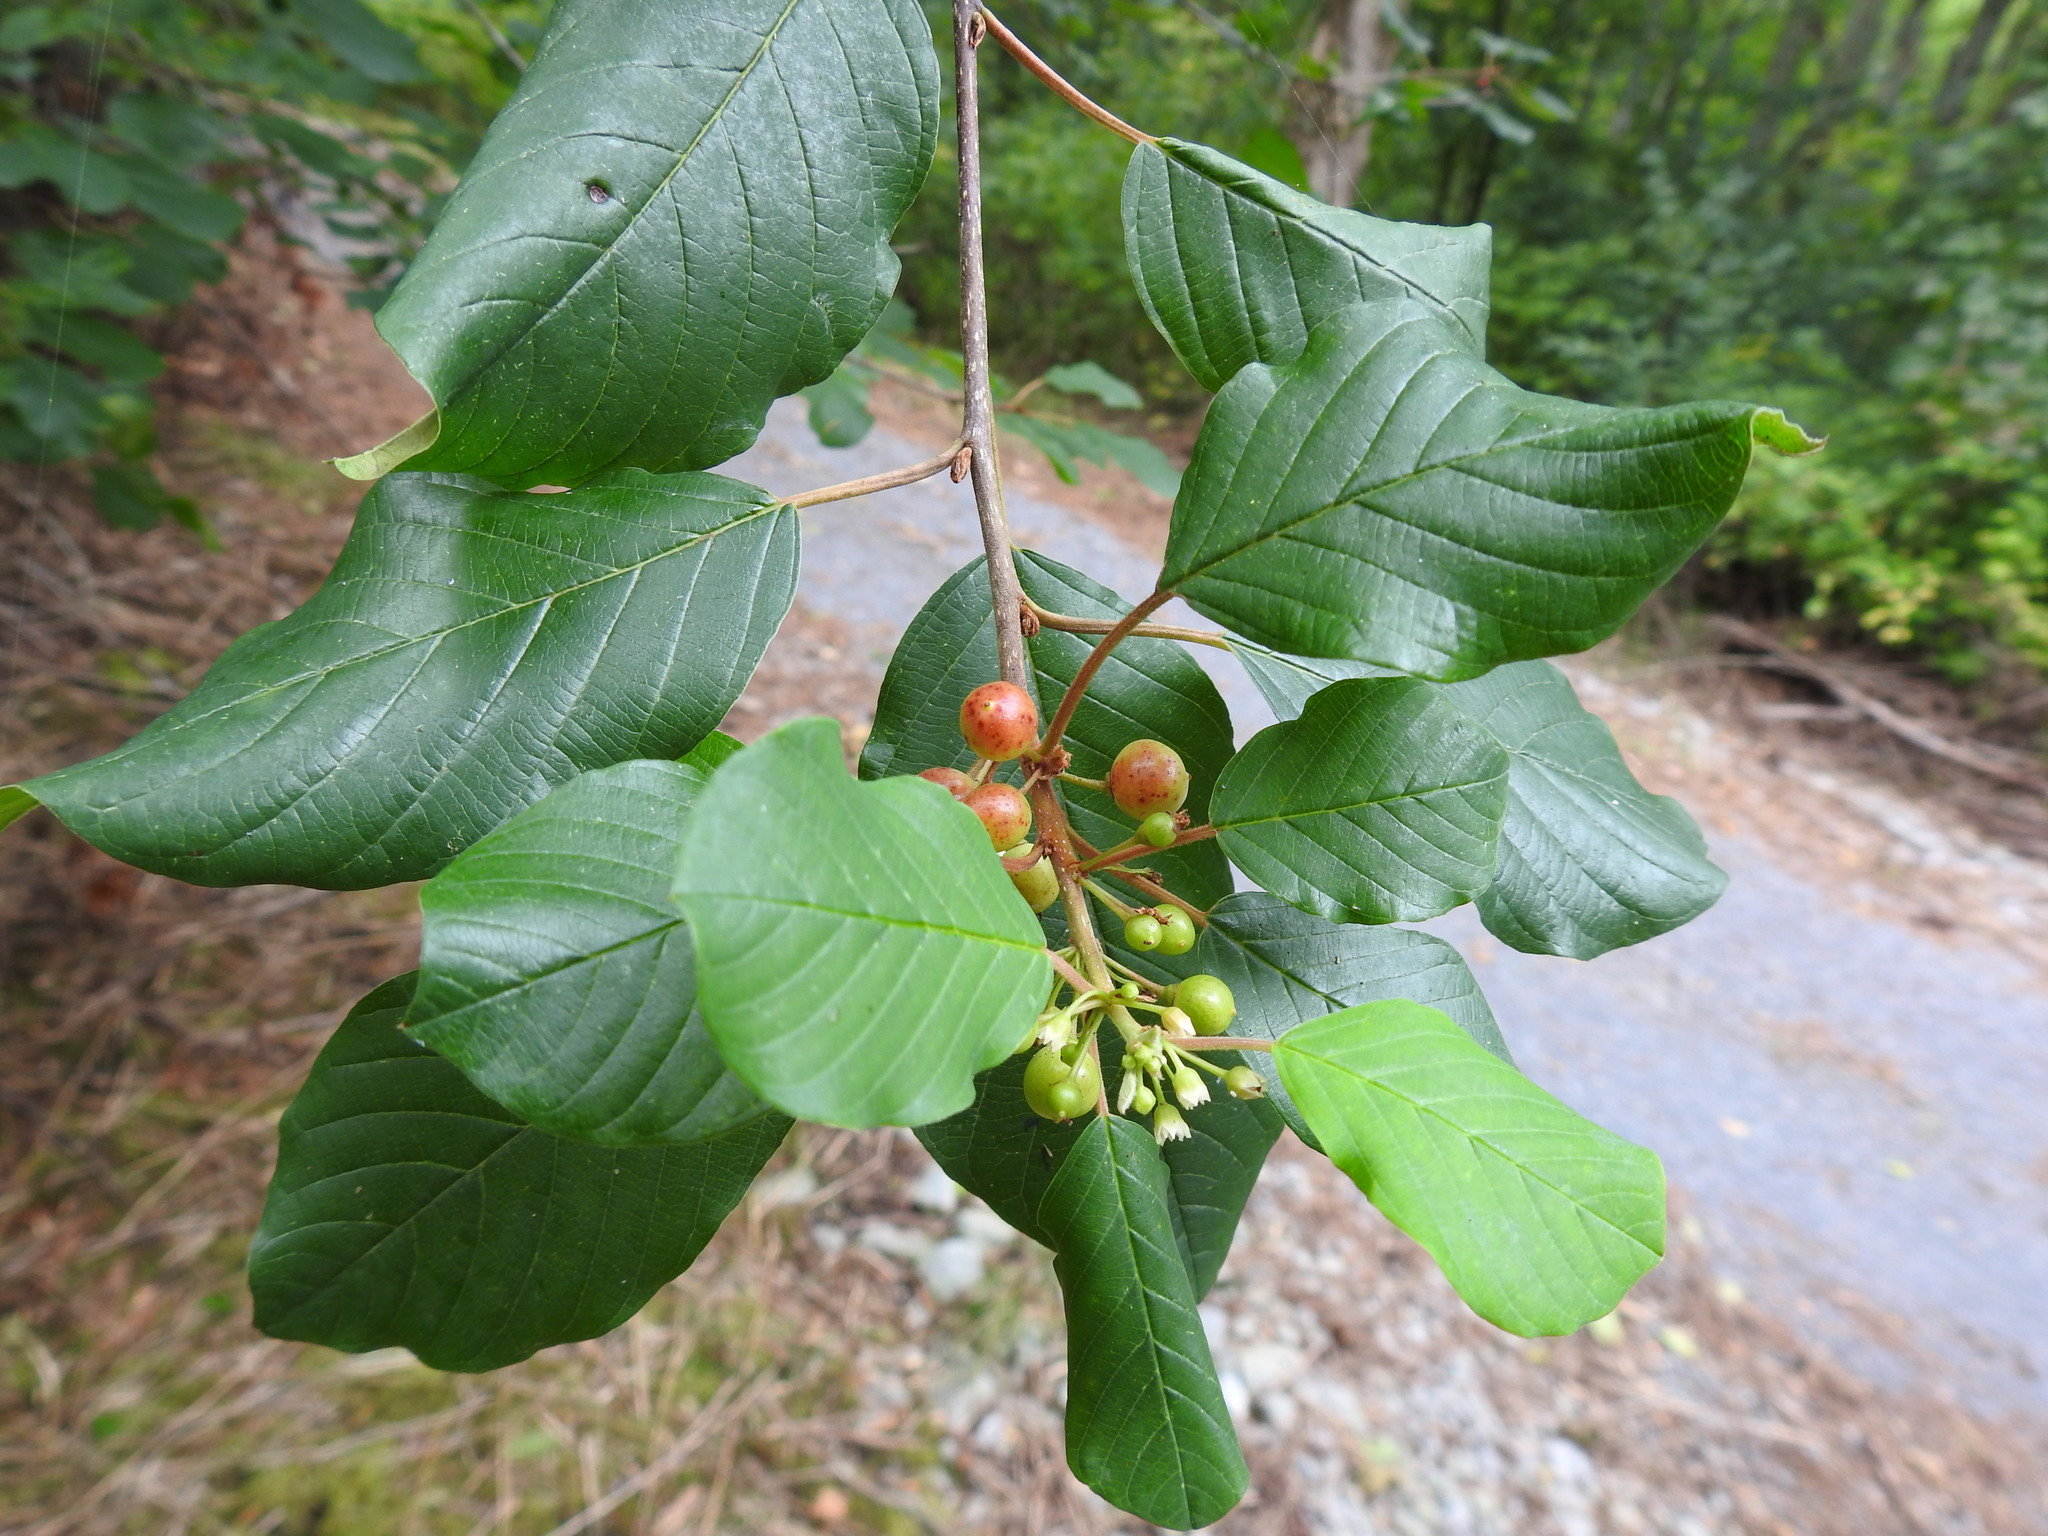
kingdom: Plantae
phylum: Tracheophyta
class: Magnoliopsida
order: Rosales
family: Rhamnaceae
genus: Frangula
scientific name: Frangula alnus
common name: Alder buckthorn
